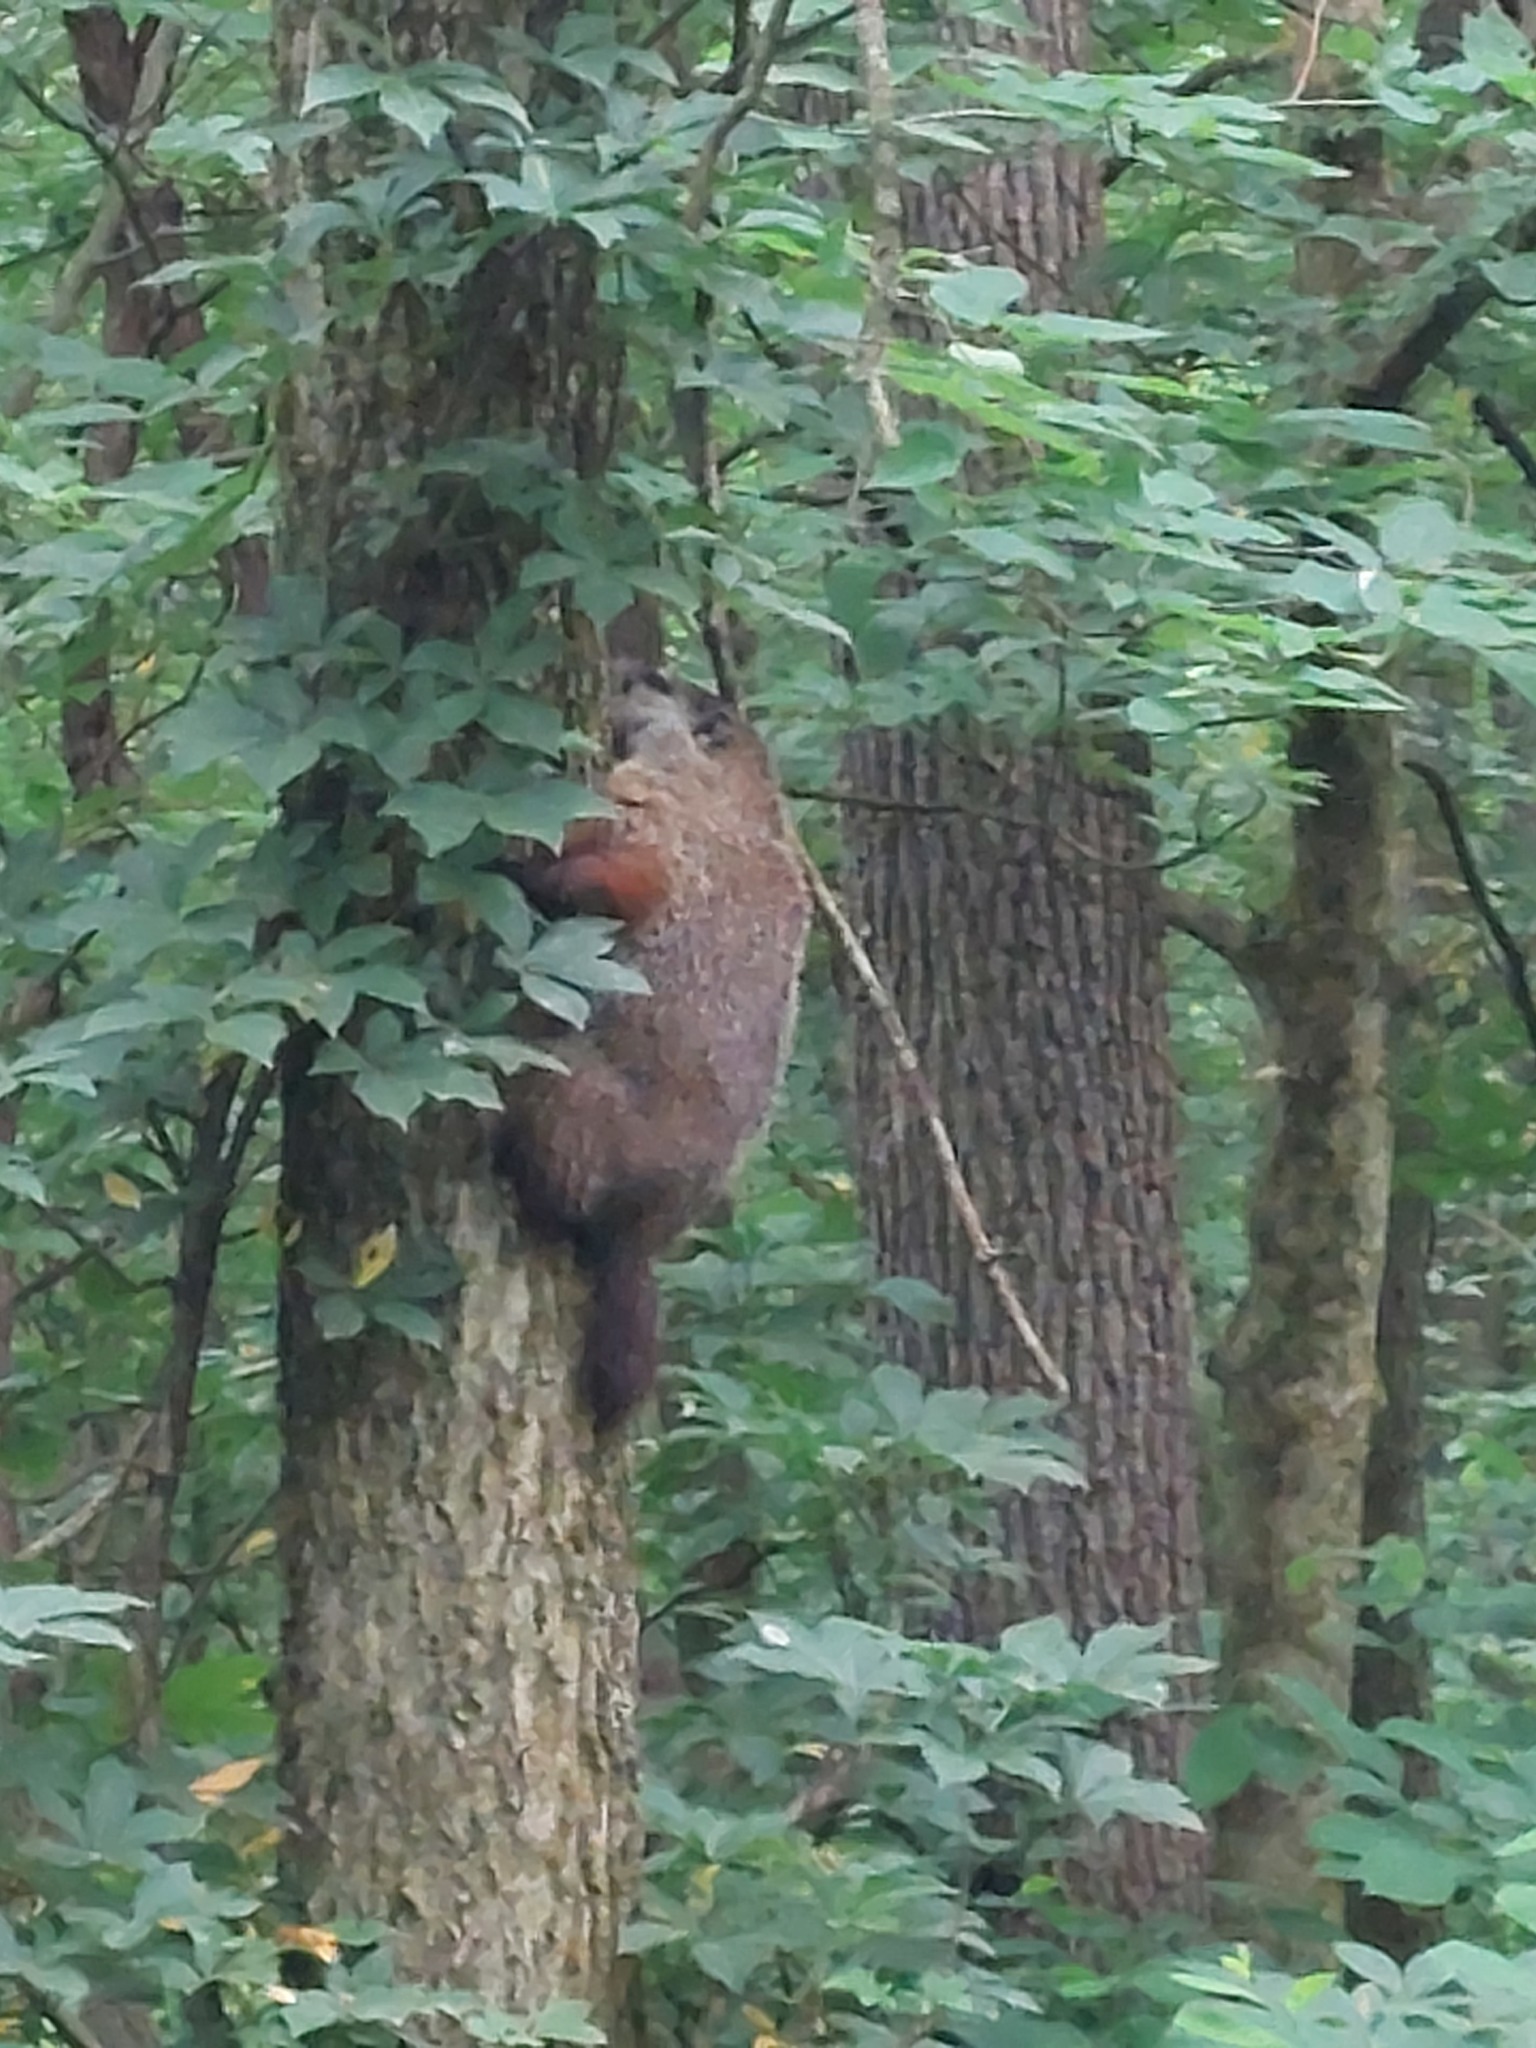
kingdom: Animalia
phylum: Chordata
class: Mammalia
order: Rodentia
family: Sciuridae
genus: Marmota
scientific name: Marmota monax
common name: Groundhog
